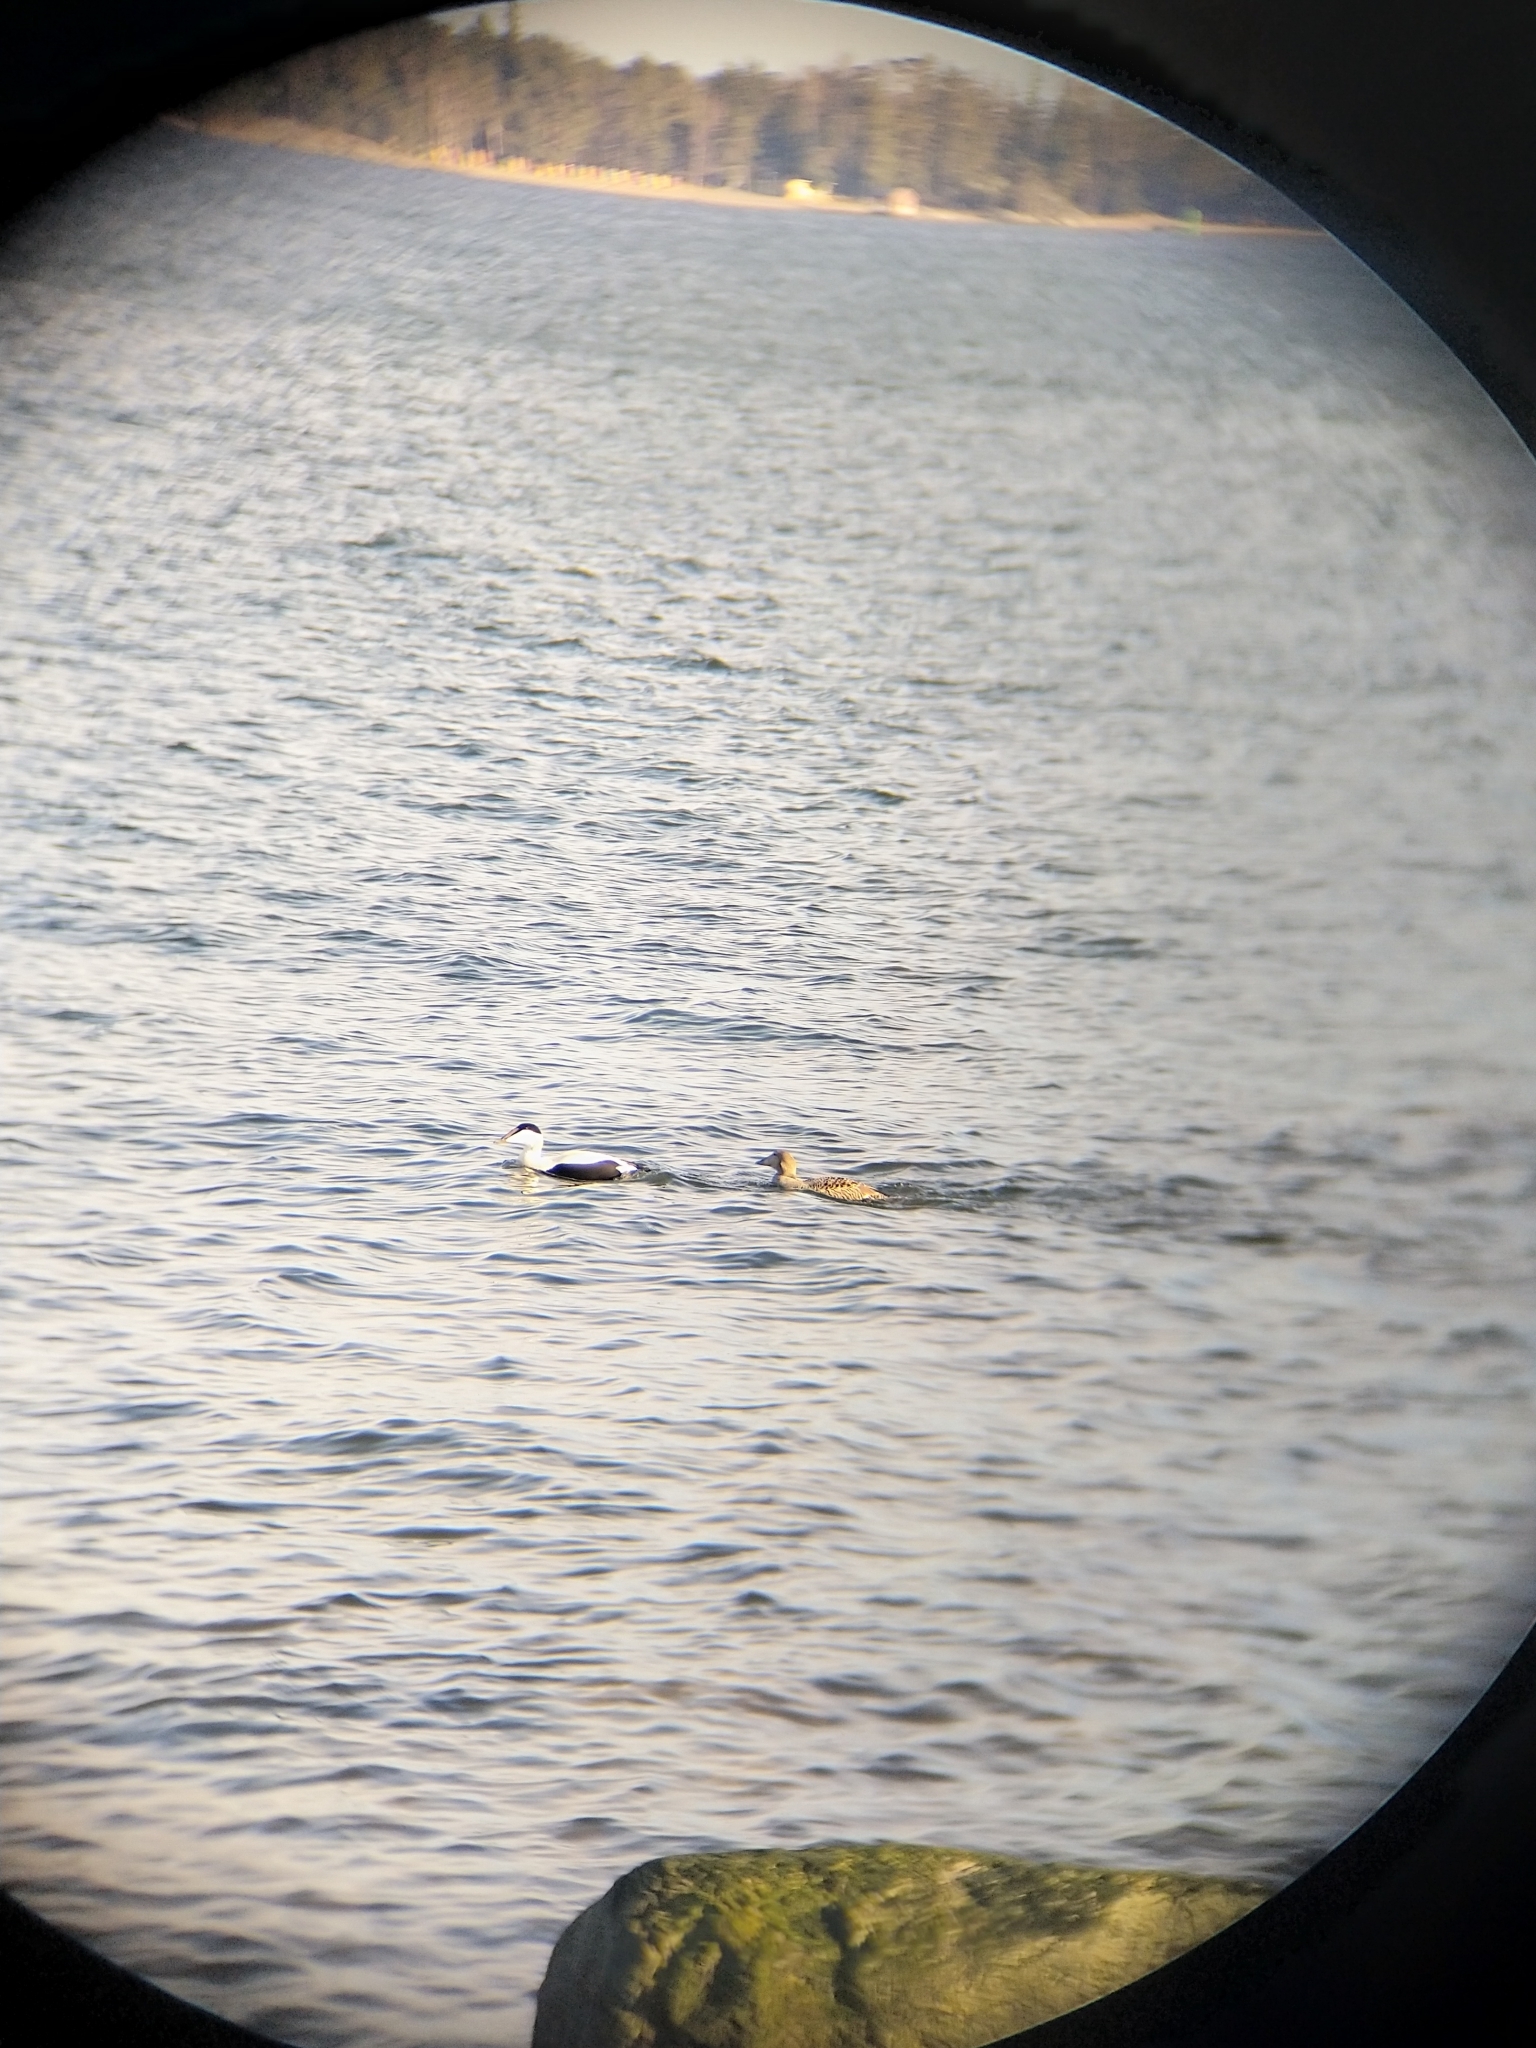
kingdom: Animalia
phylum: Chordata
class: Aves
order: Anseriformes
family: Anatidae
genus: Somateria
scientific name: Somateria mollissima
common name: Common eider
